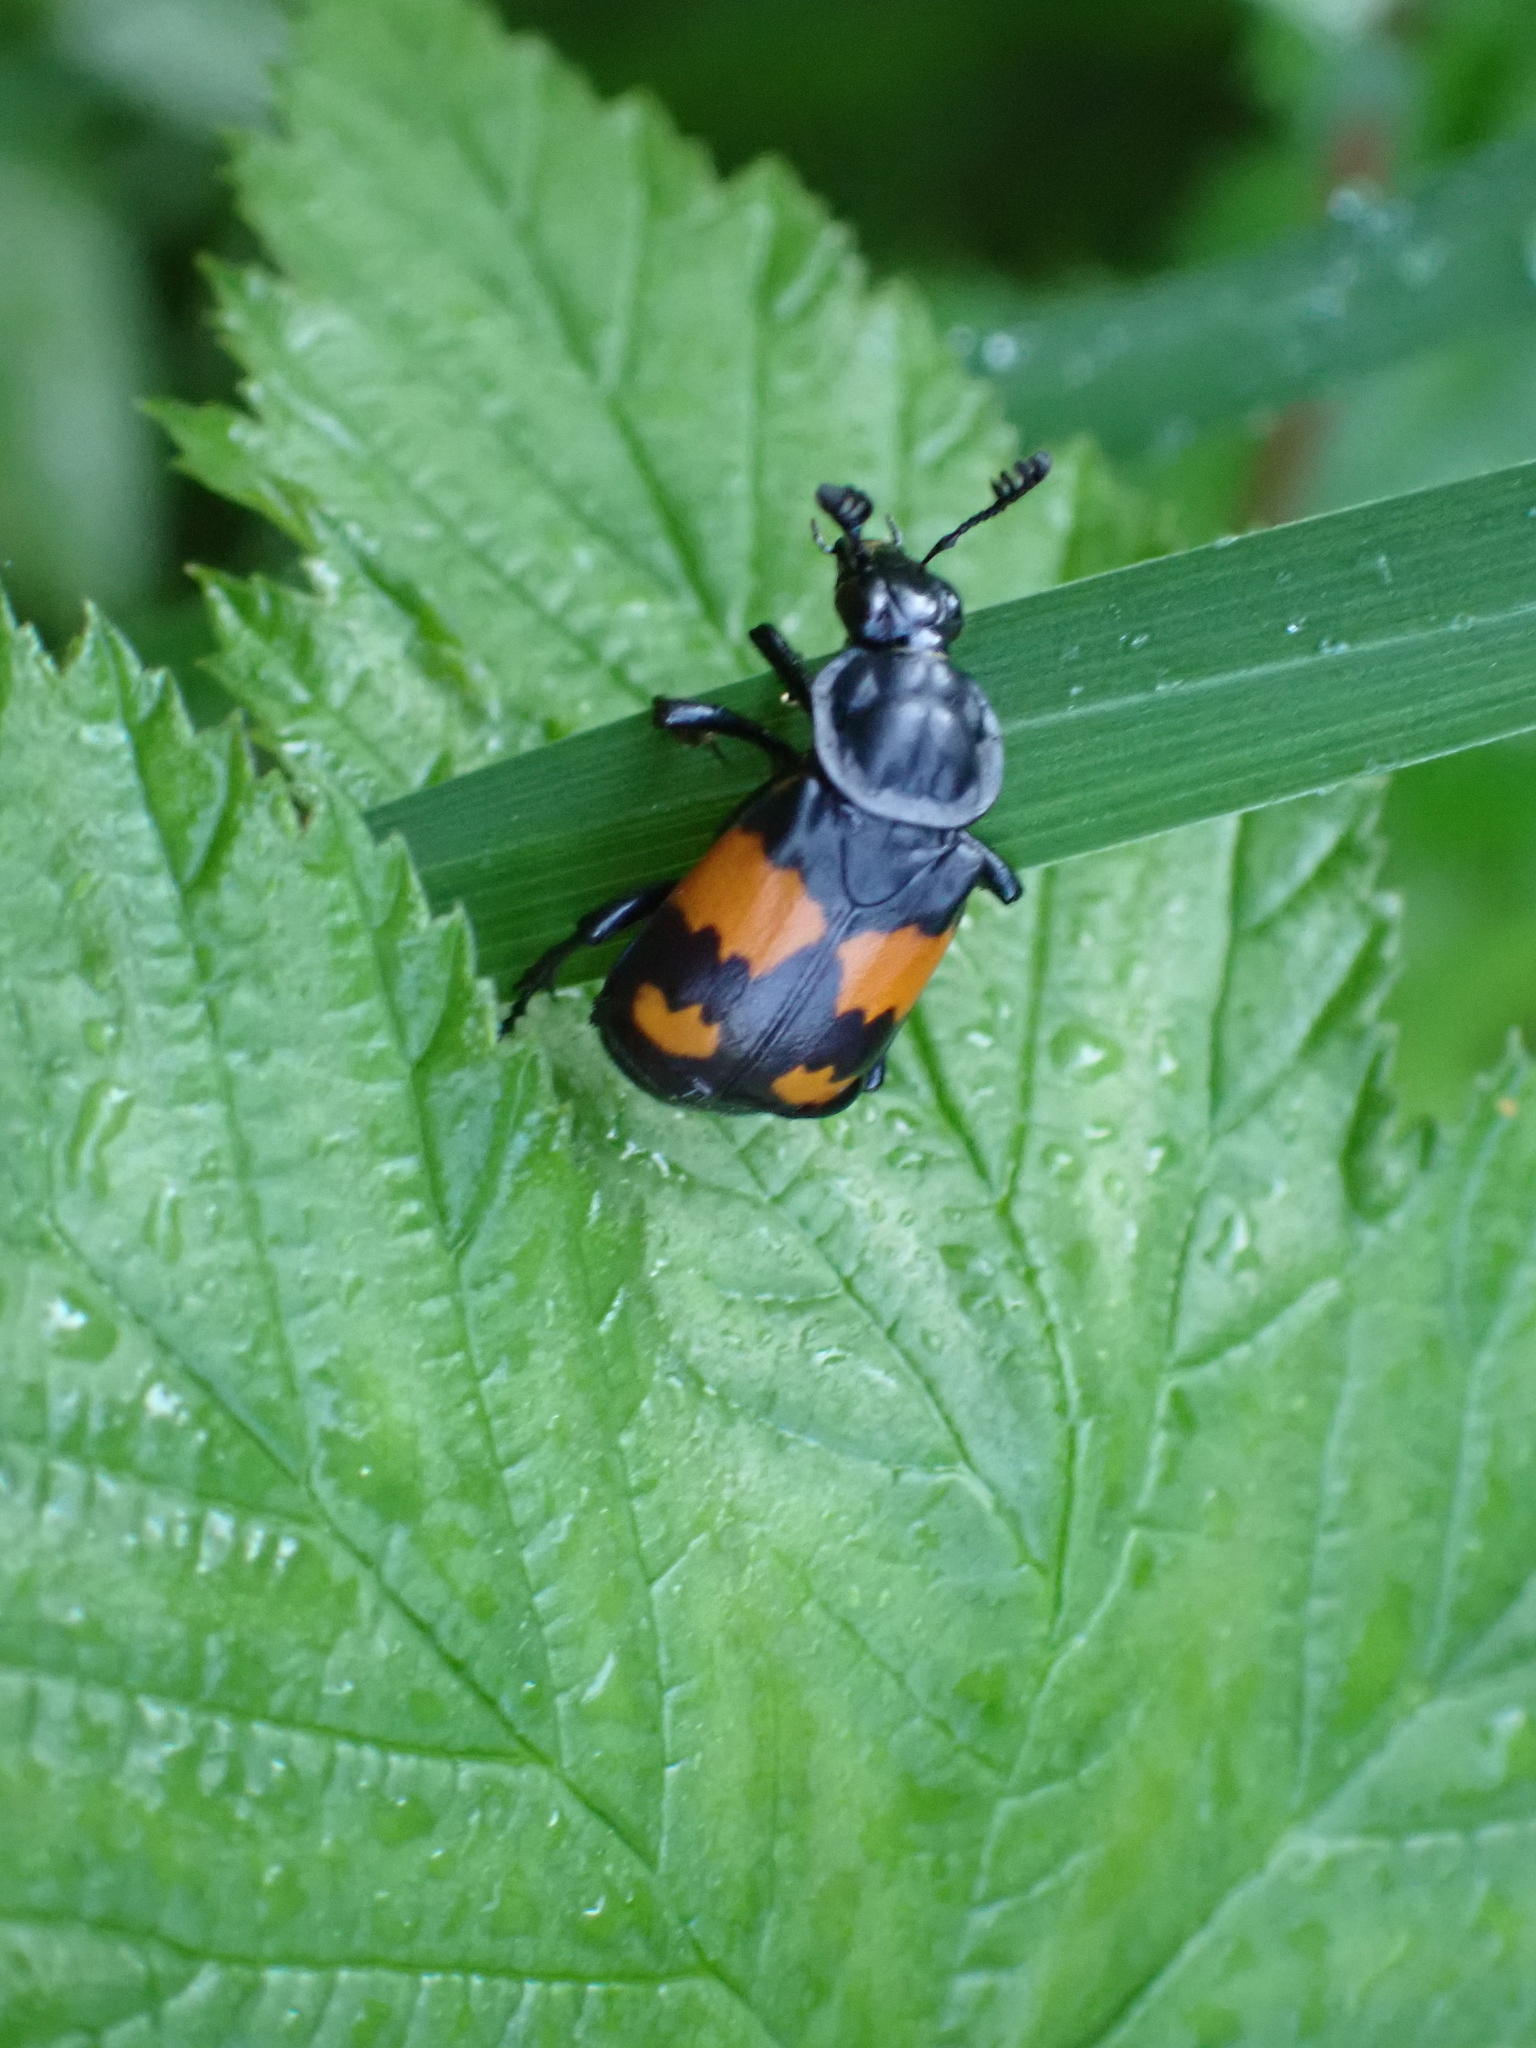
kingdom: Animalia
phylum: Arthropoda
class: Insecta
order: Coleoptera
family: Staphylinidae
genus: Nicrophorus
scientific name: Nicrophorus vespilloides
